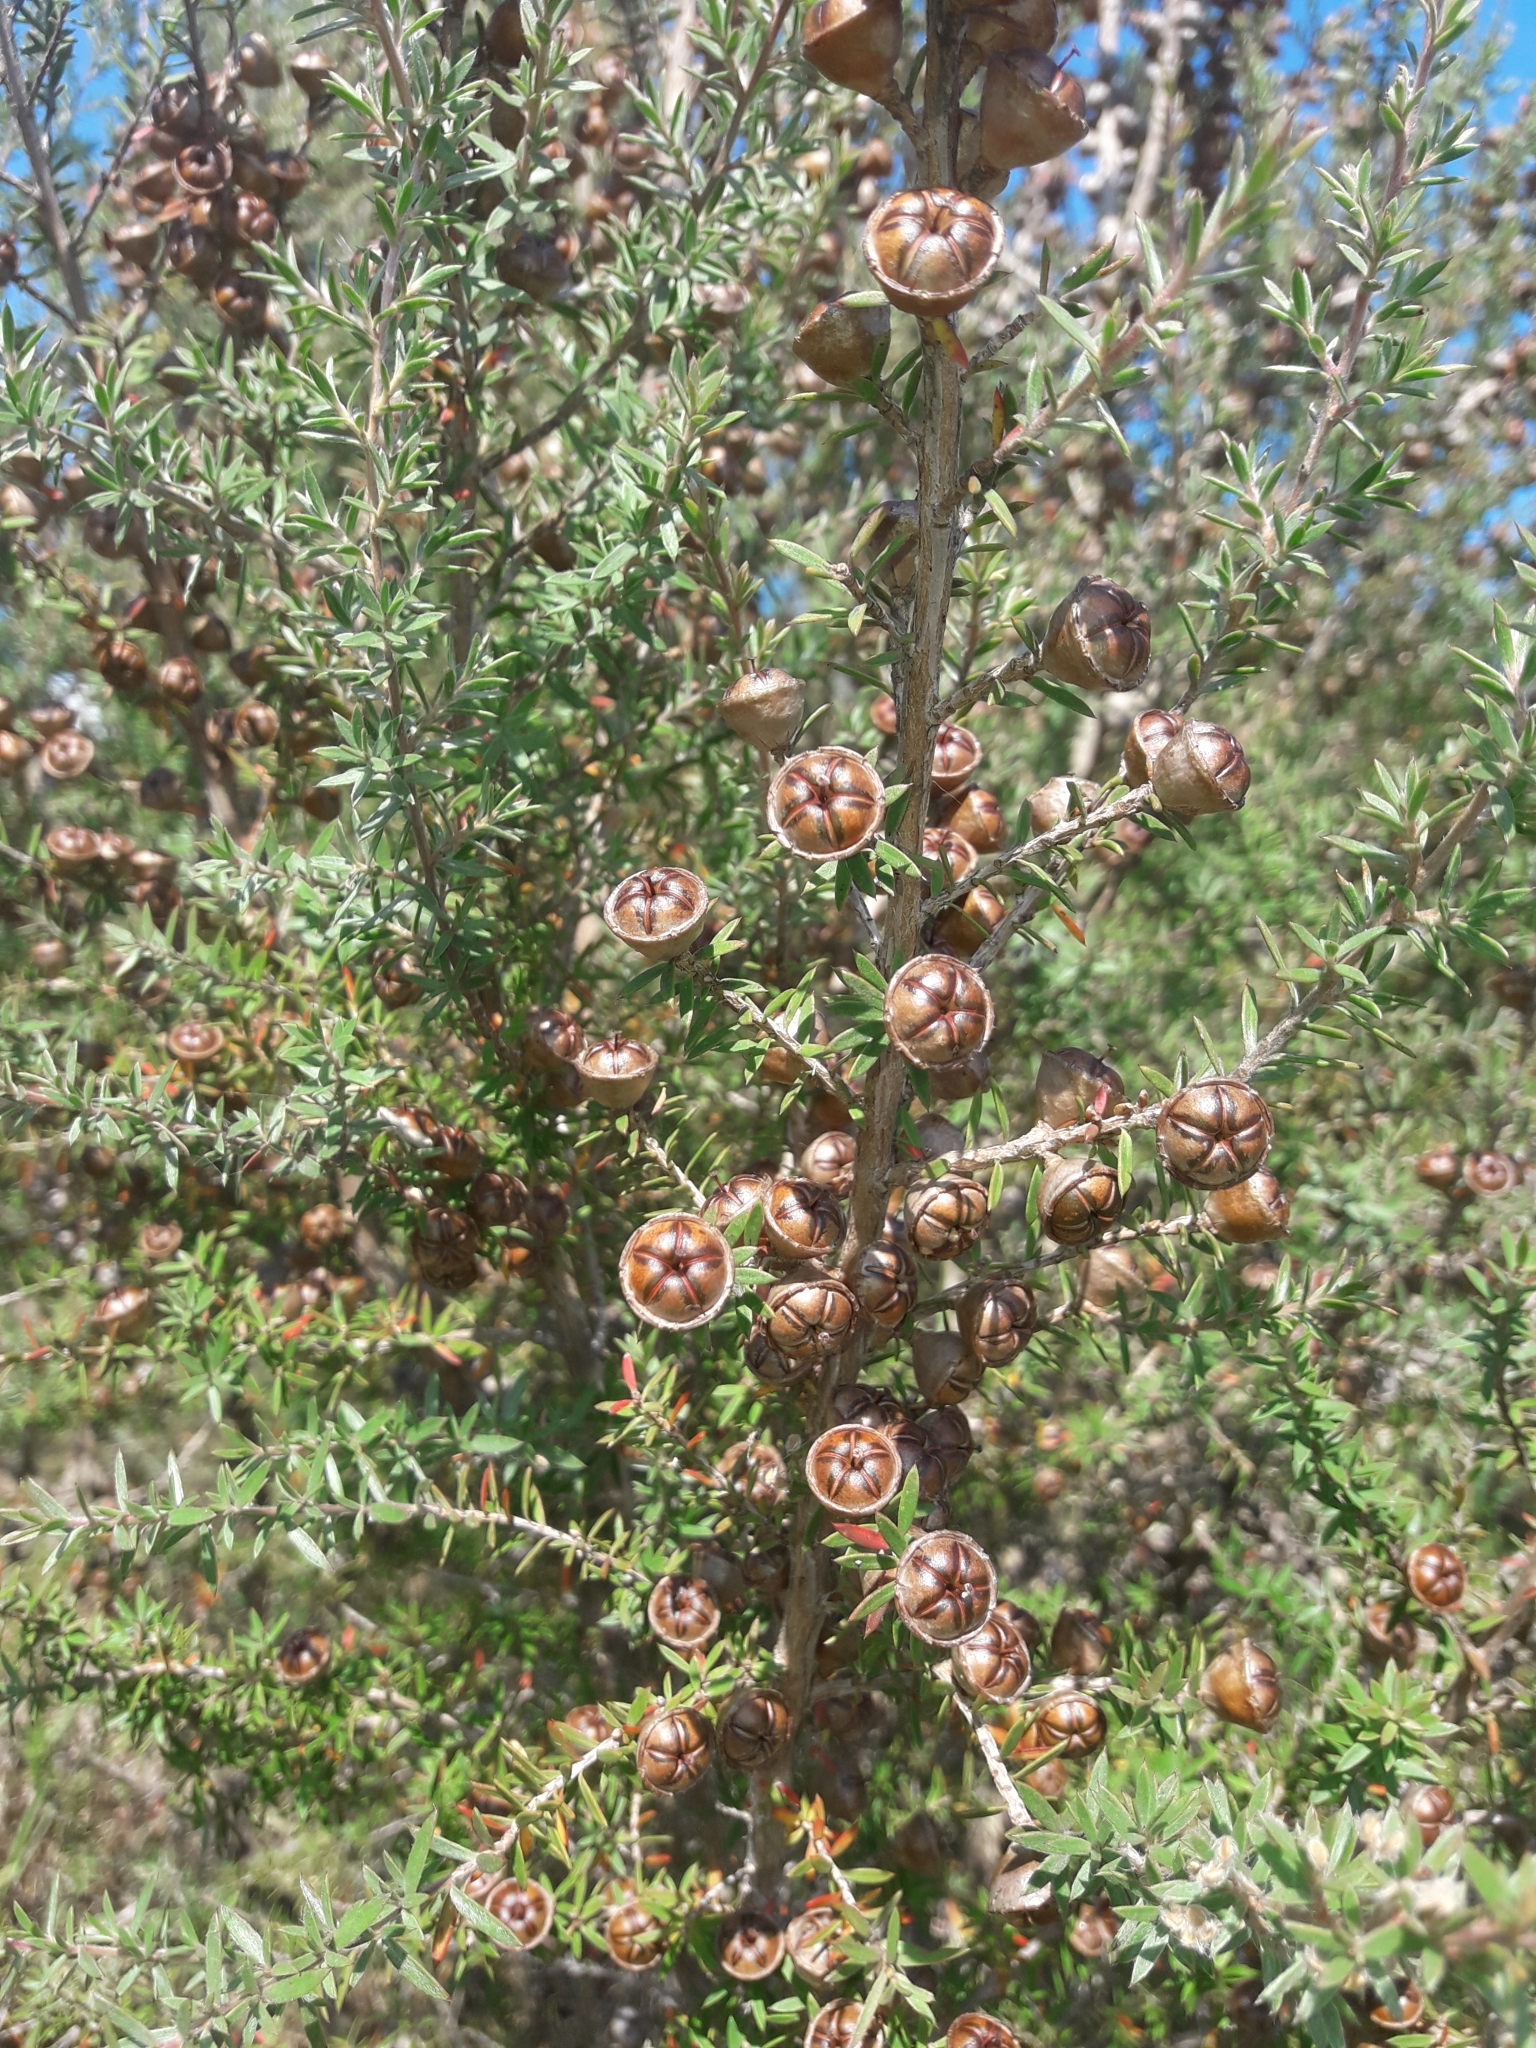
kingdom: Plantae
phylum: Tracheophyta
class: Magnoliopsida
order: Myrtales
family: Myrtaceae
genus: Leptospermum
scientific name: Leptospermum scoparium
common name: Broom tea-tree
